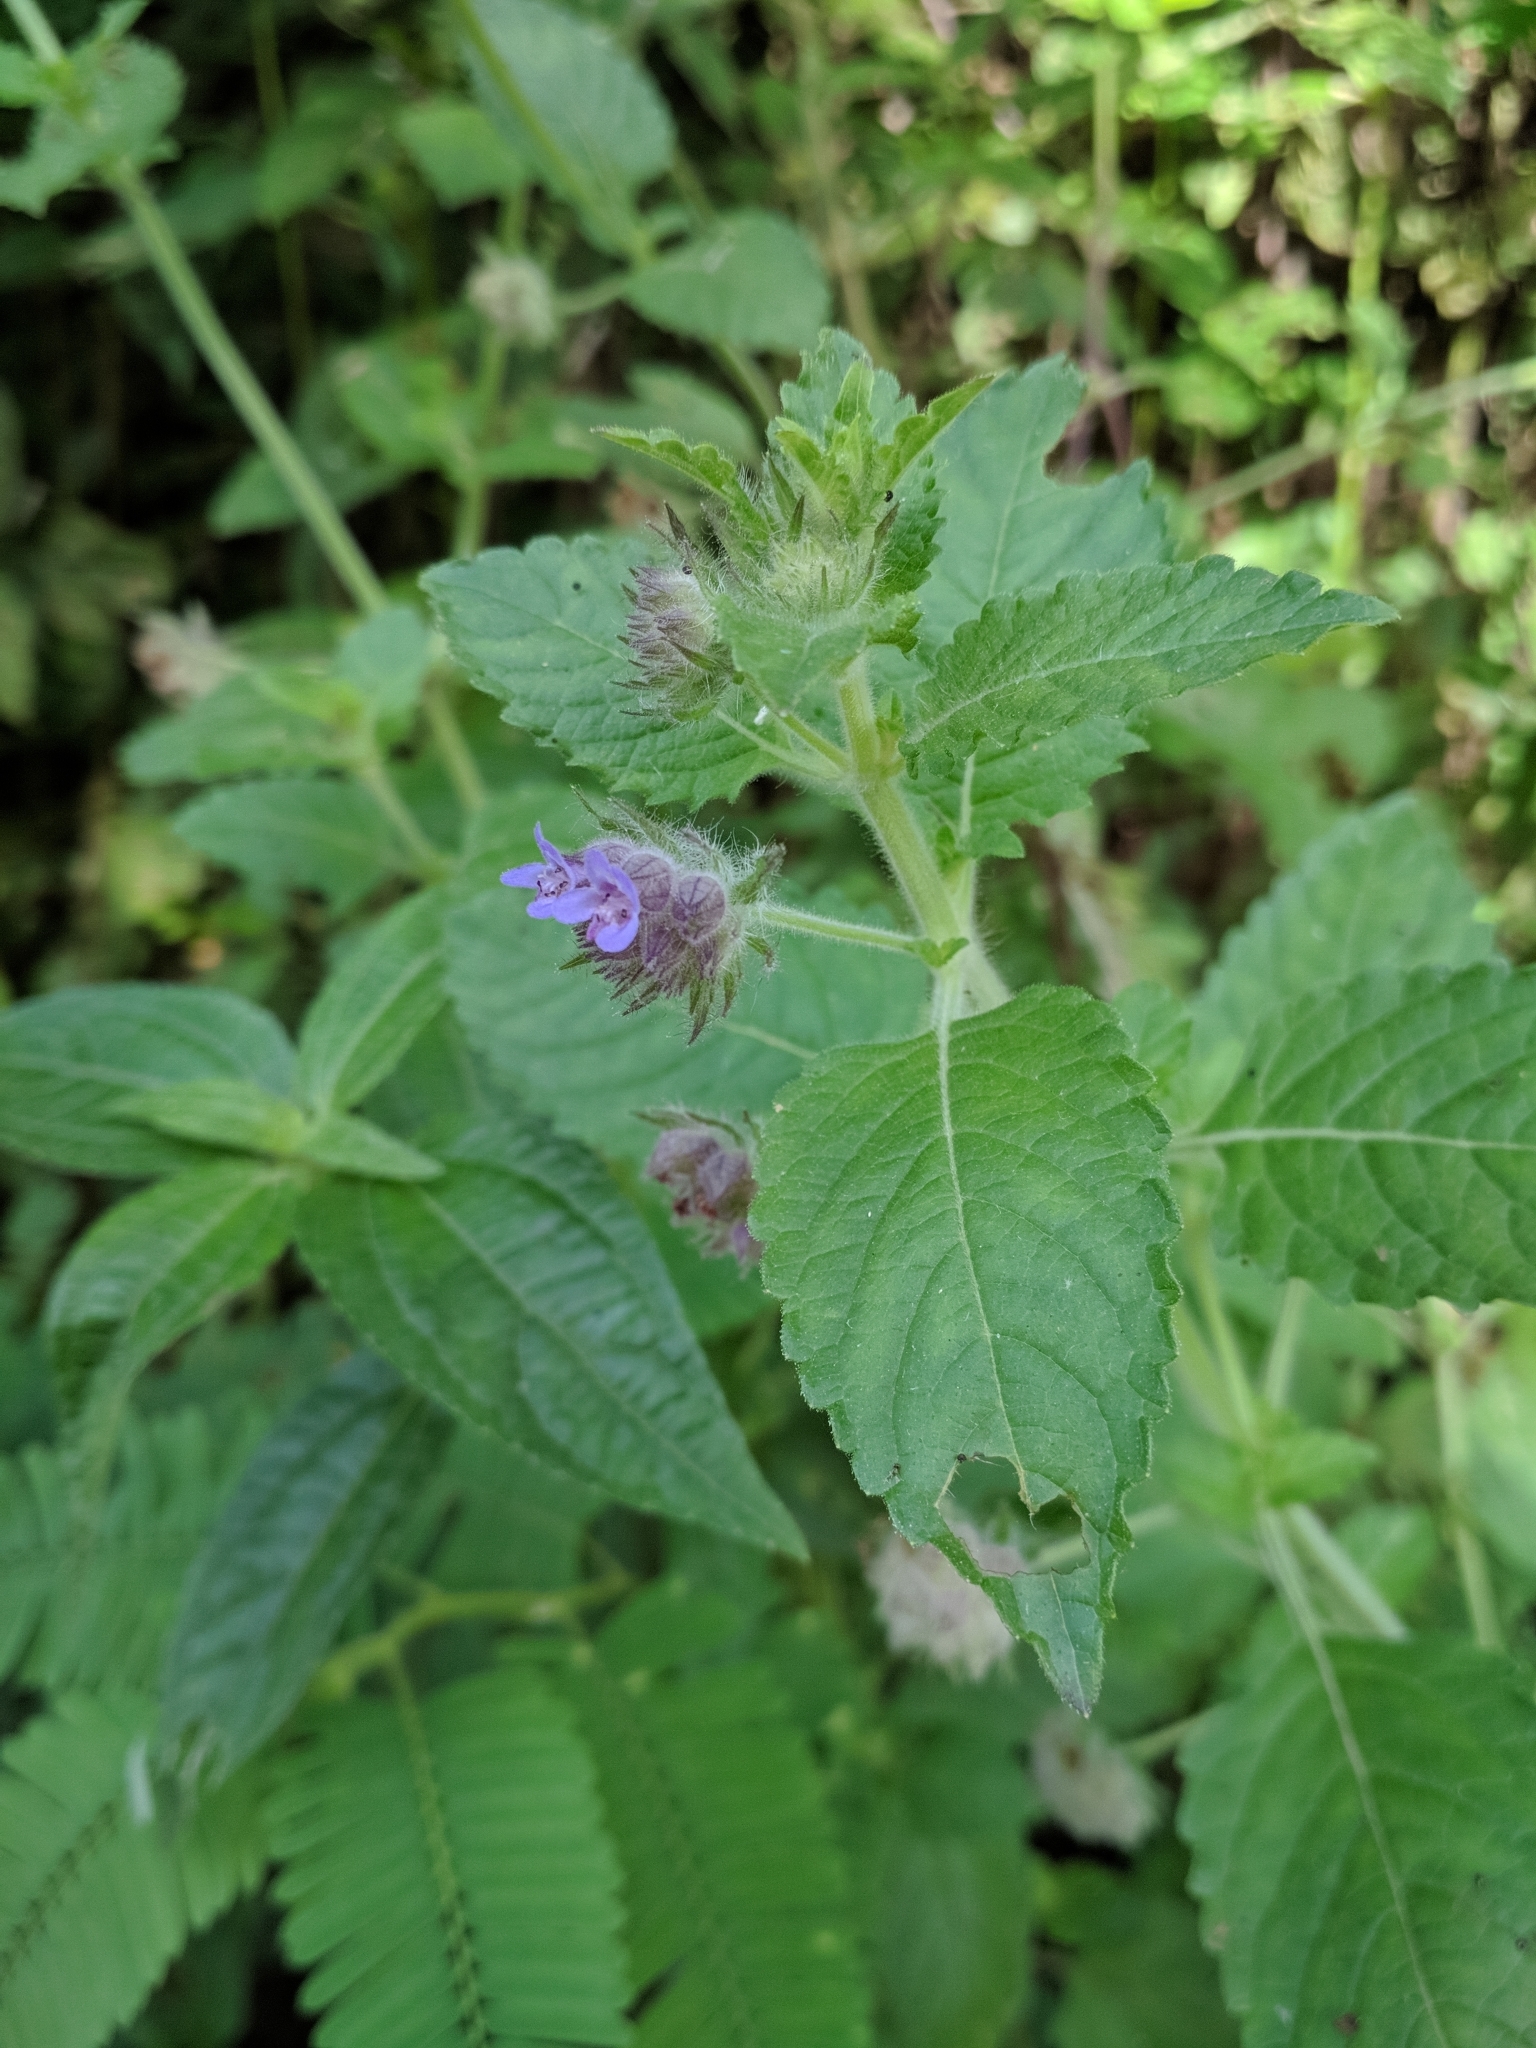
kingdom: Plantae
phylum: Tracheophyta
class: Magnoliopsida
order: Lamiales
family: Lamiaceae
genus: Marsypianthes
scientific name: Marsypianthes chamaedrys
